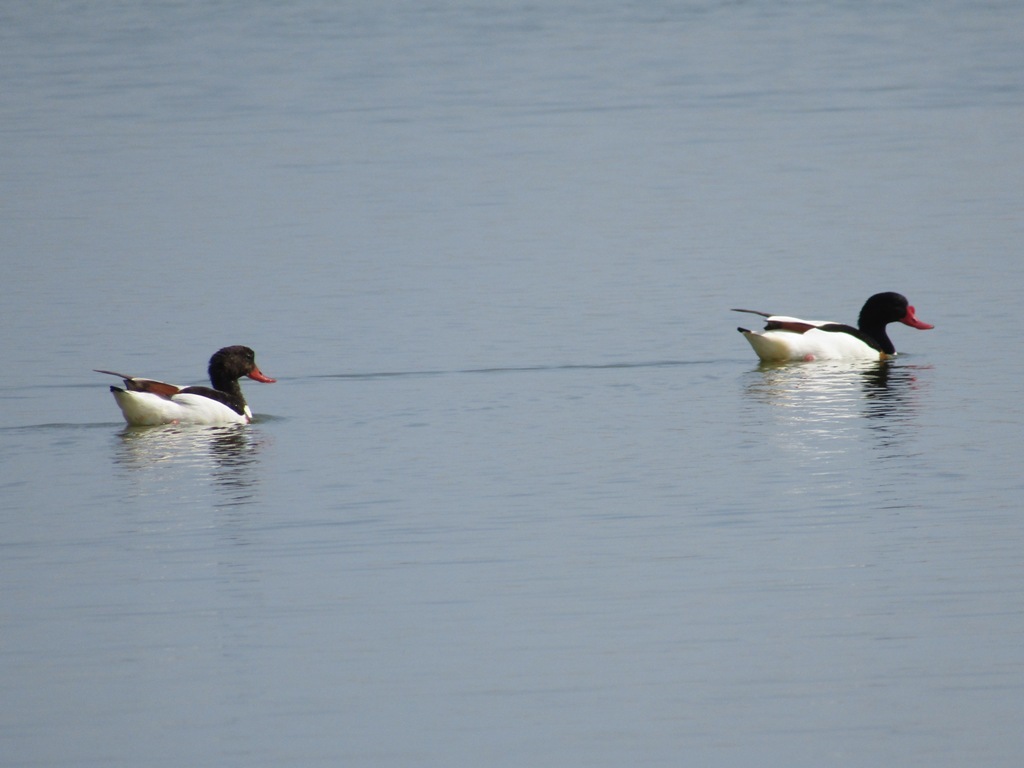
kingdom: Animalia
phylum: Chordata
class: Aves
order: Anseriformes
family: Anatidae
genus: Tadorna
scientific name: Tadorna tadorna
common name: Common shelduck
